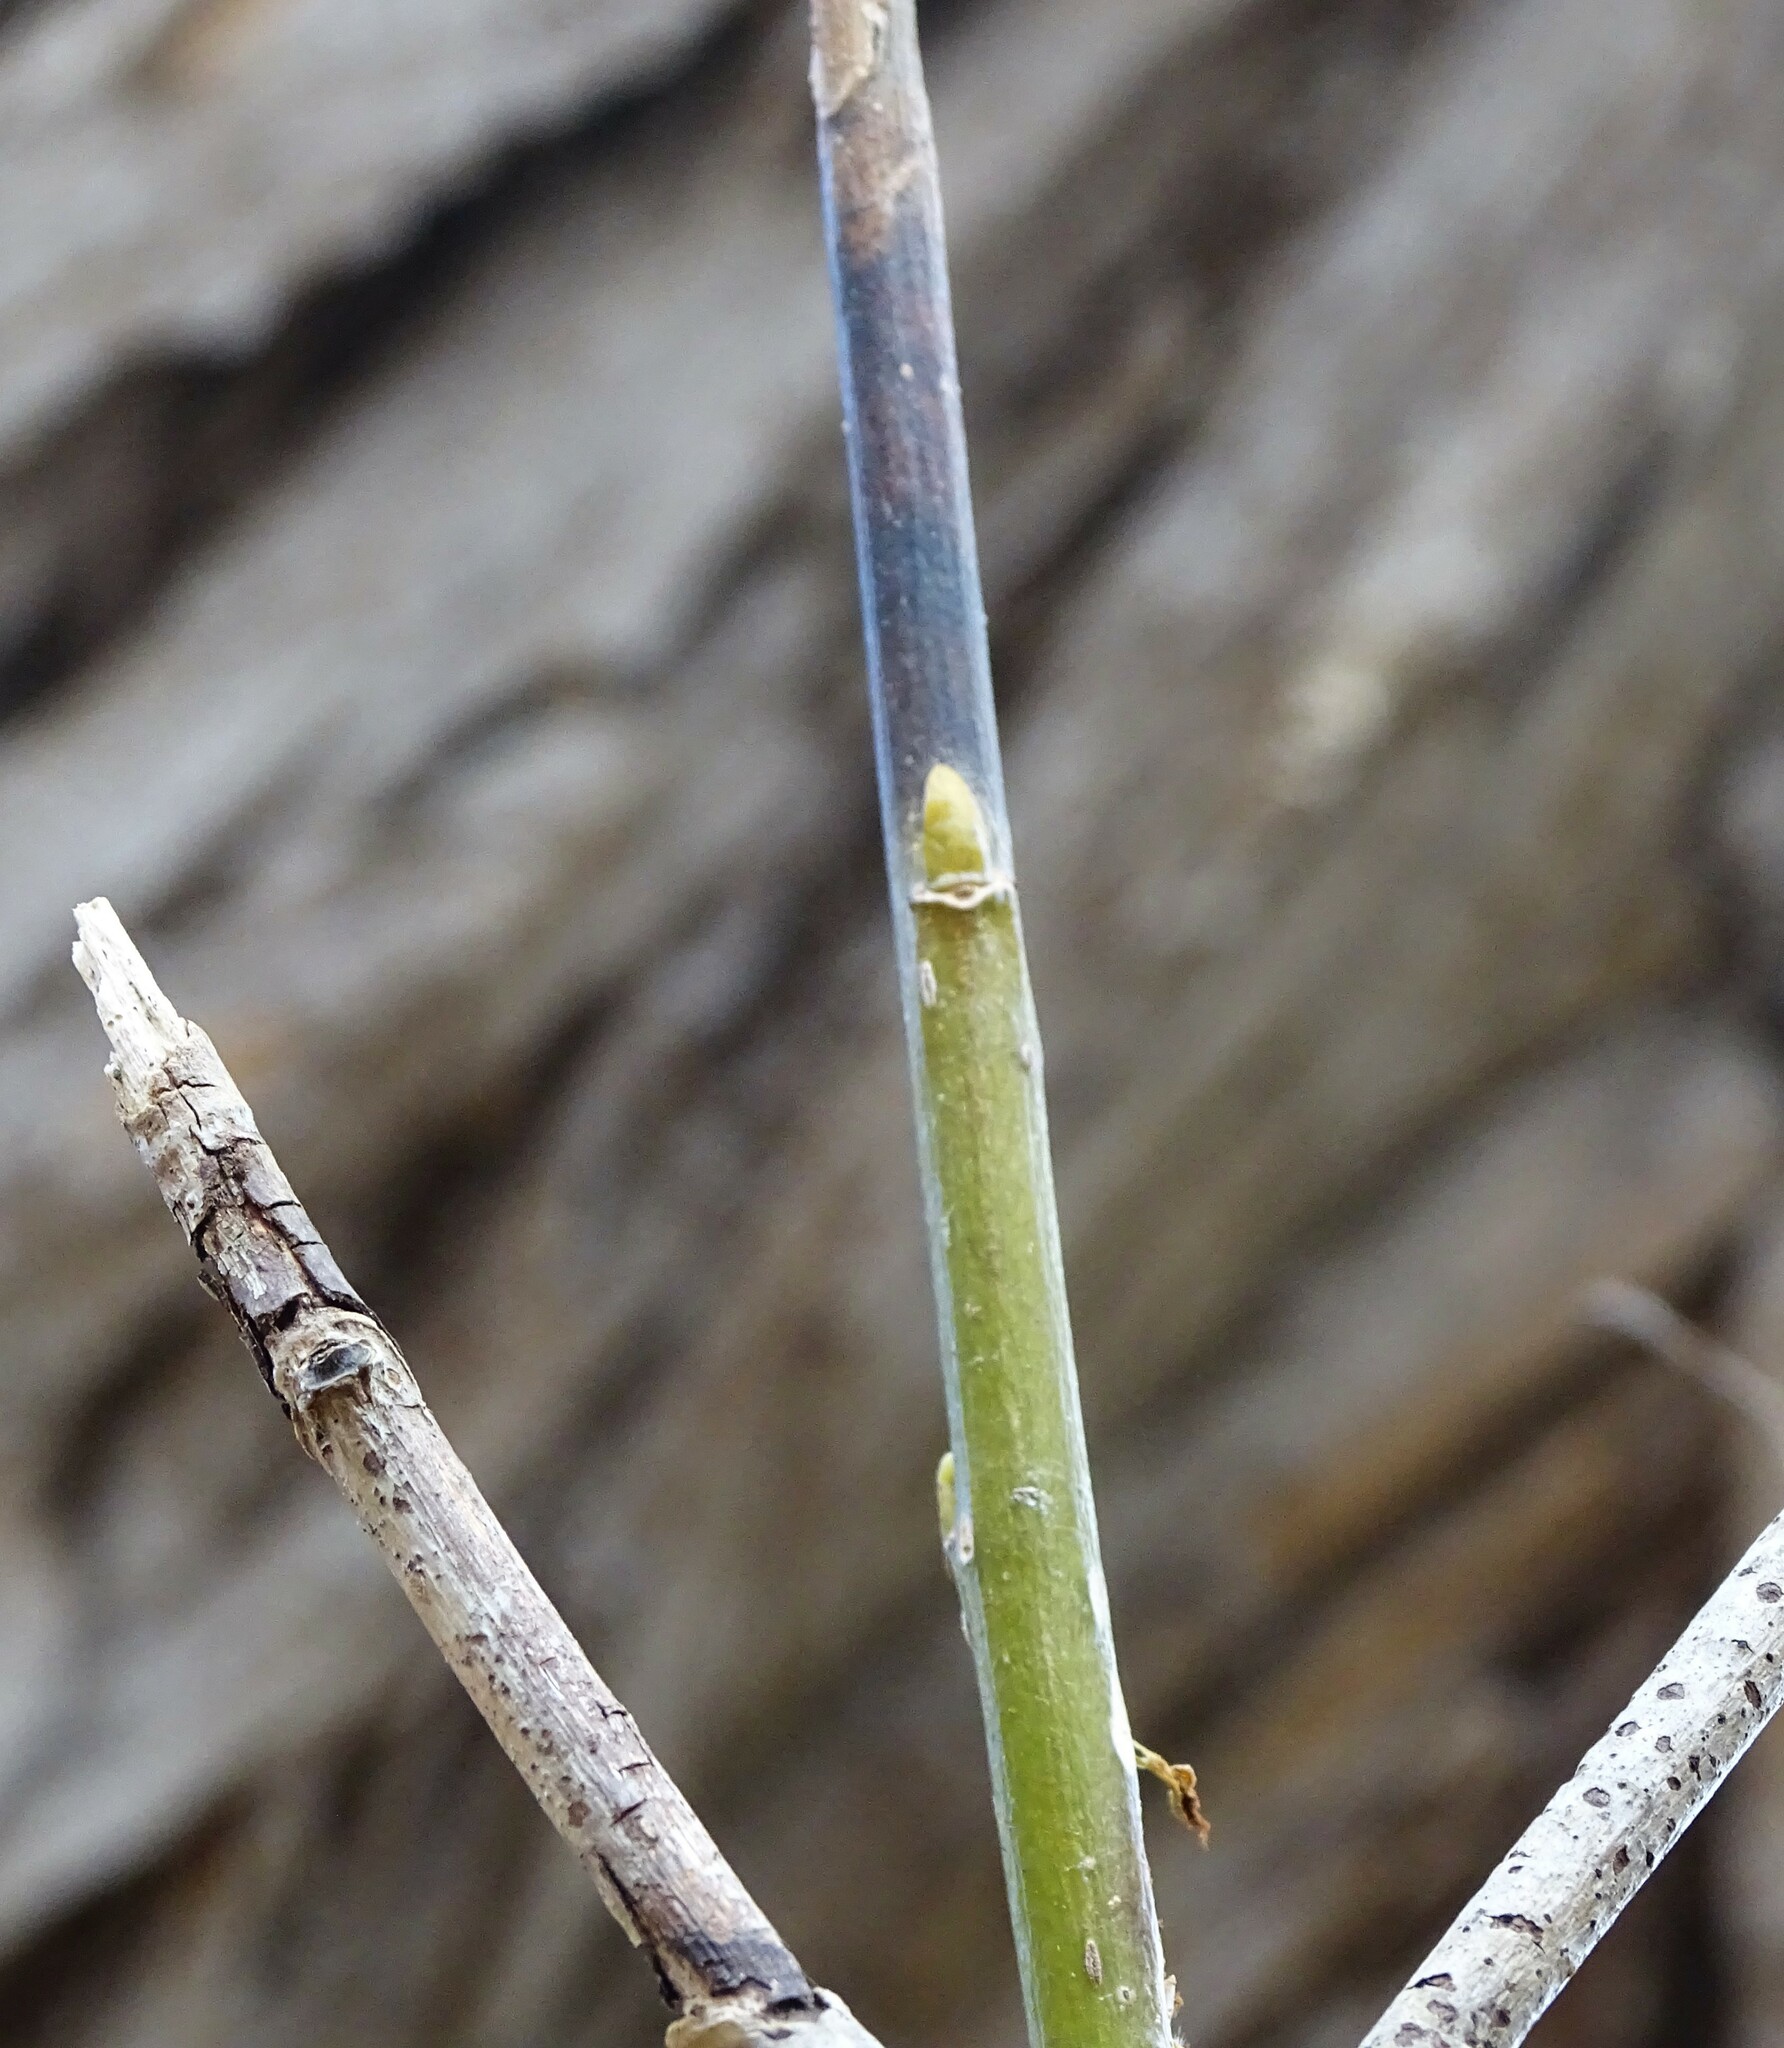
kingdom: Plantae
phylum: Tracheophyta
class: Magnoliopsida
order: Malpighiales
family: Salicaceae
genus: Salix
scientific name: Salix nigra
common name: Black willow
